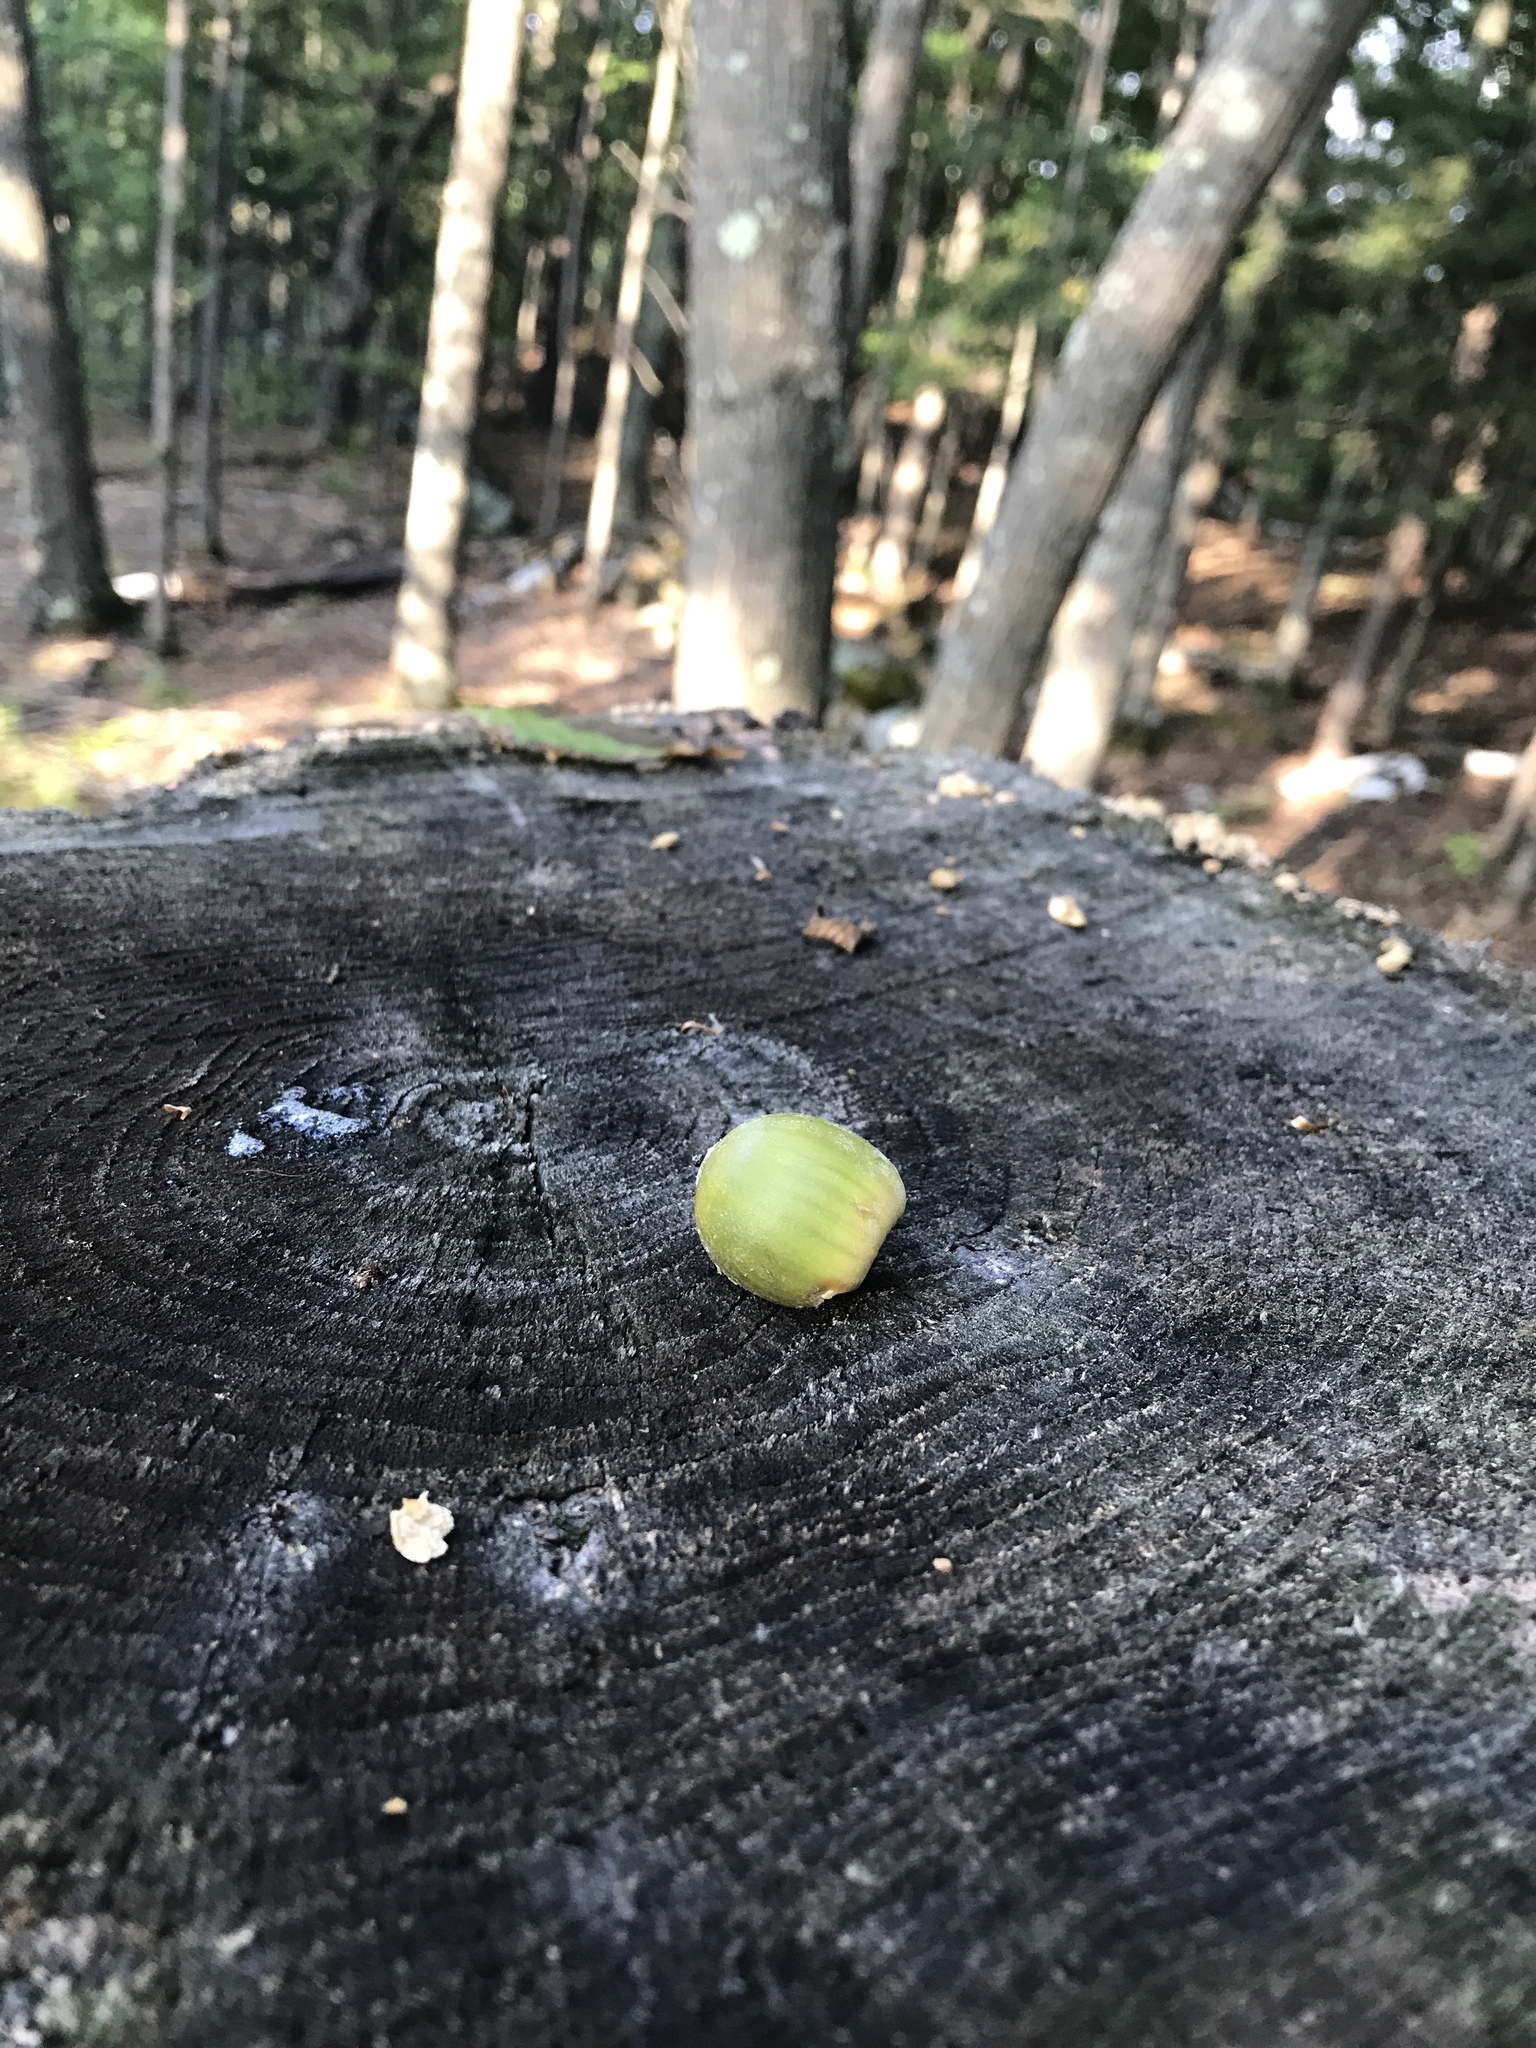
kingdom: Plantae
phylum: Tracheophyta
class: Magnoliopsida
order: Fagales
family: Fagaceae
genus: Quercus
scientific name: Quercus rubra
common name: Red oak
